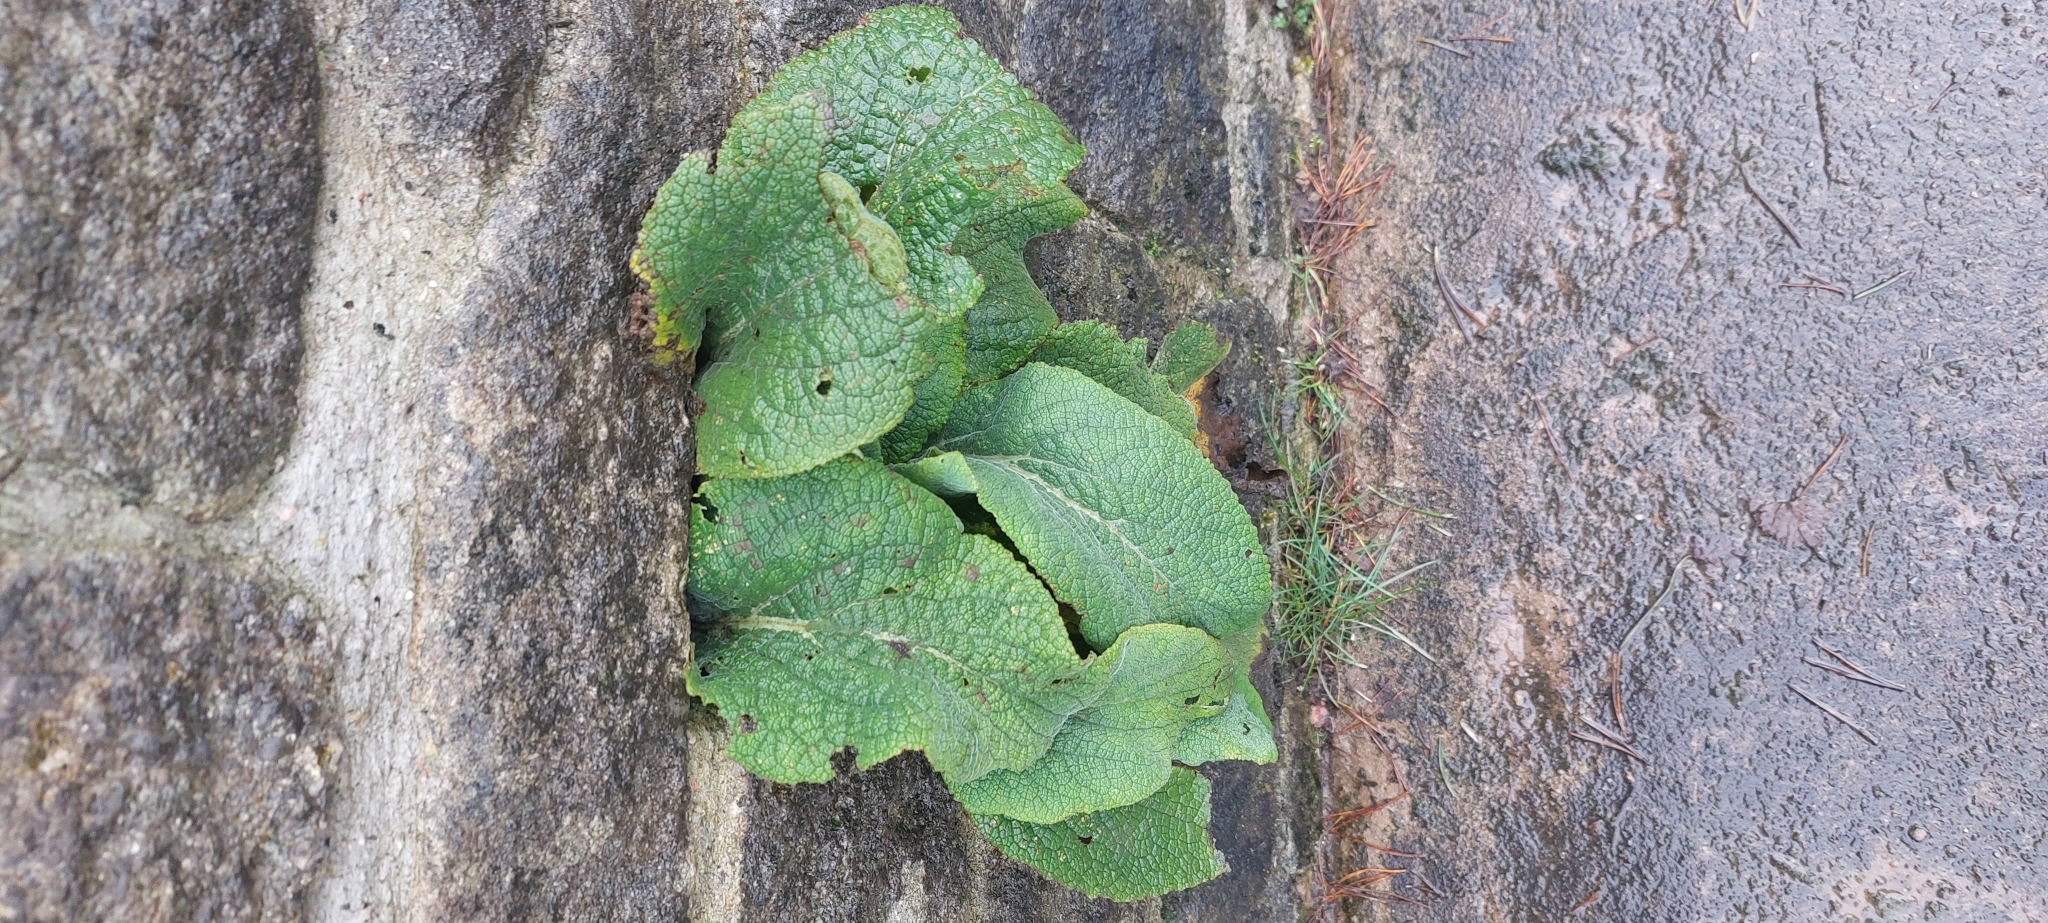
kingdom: Plantae
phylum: Tracheophyta
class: Magnoliopsida
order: Lamiales
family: Plantaginaceae
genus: Digitalis
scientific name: Digitalis purpurea
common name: Foxglove
